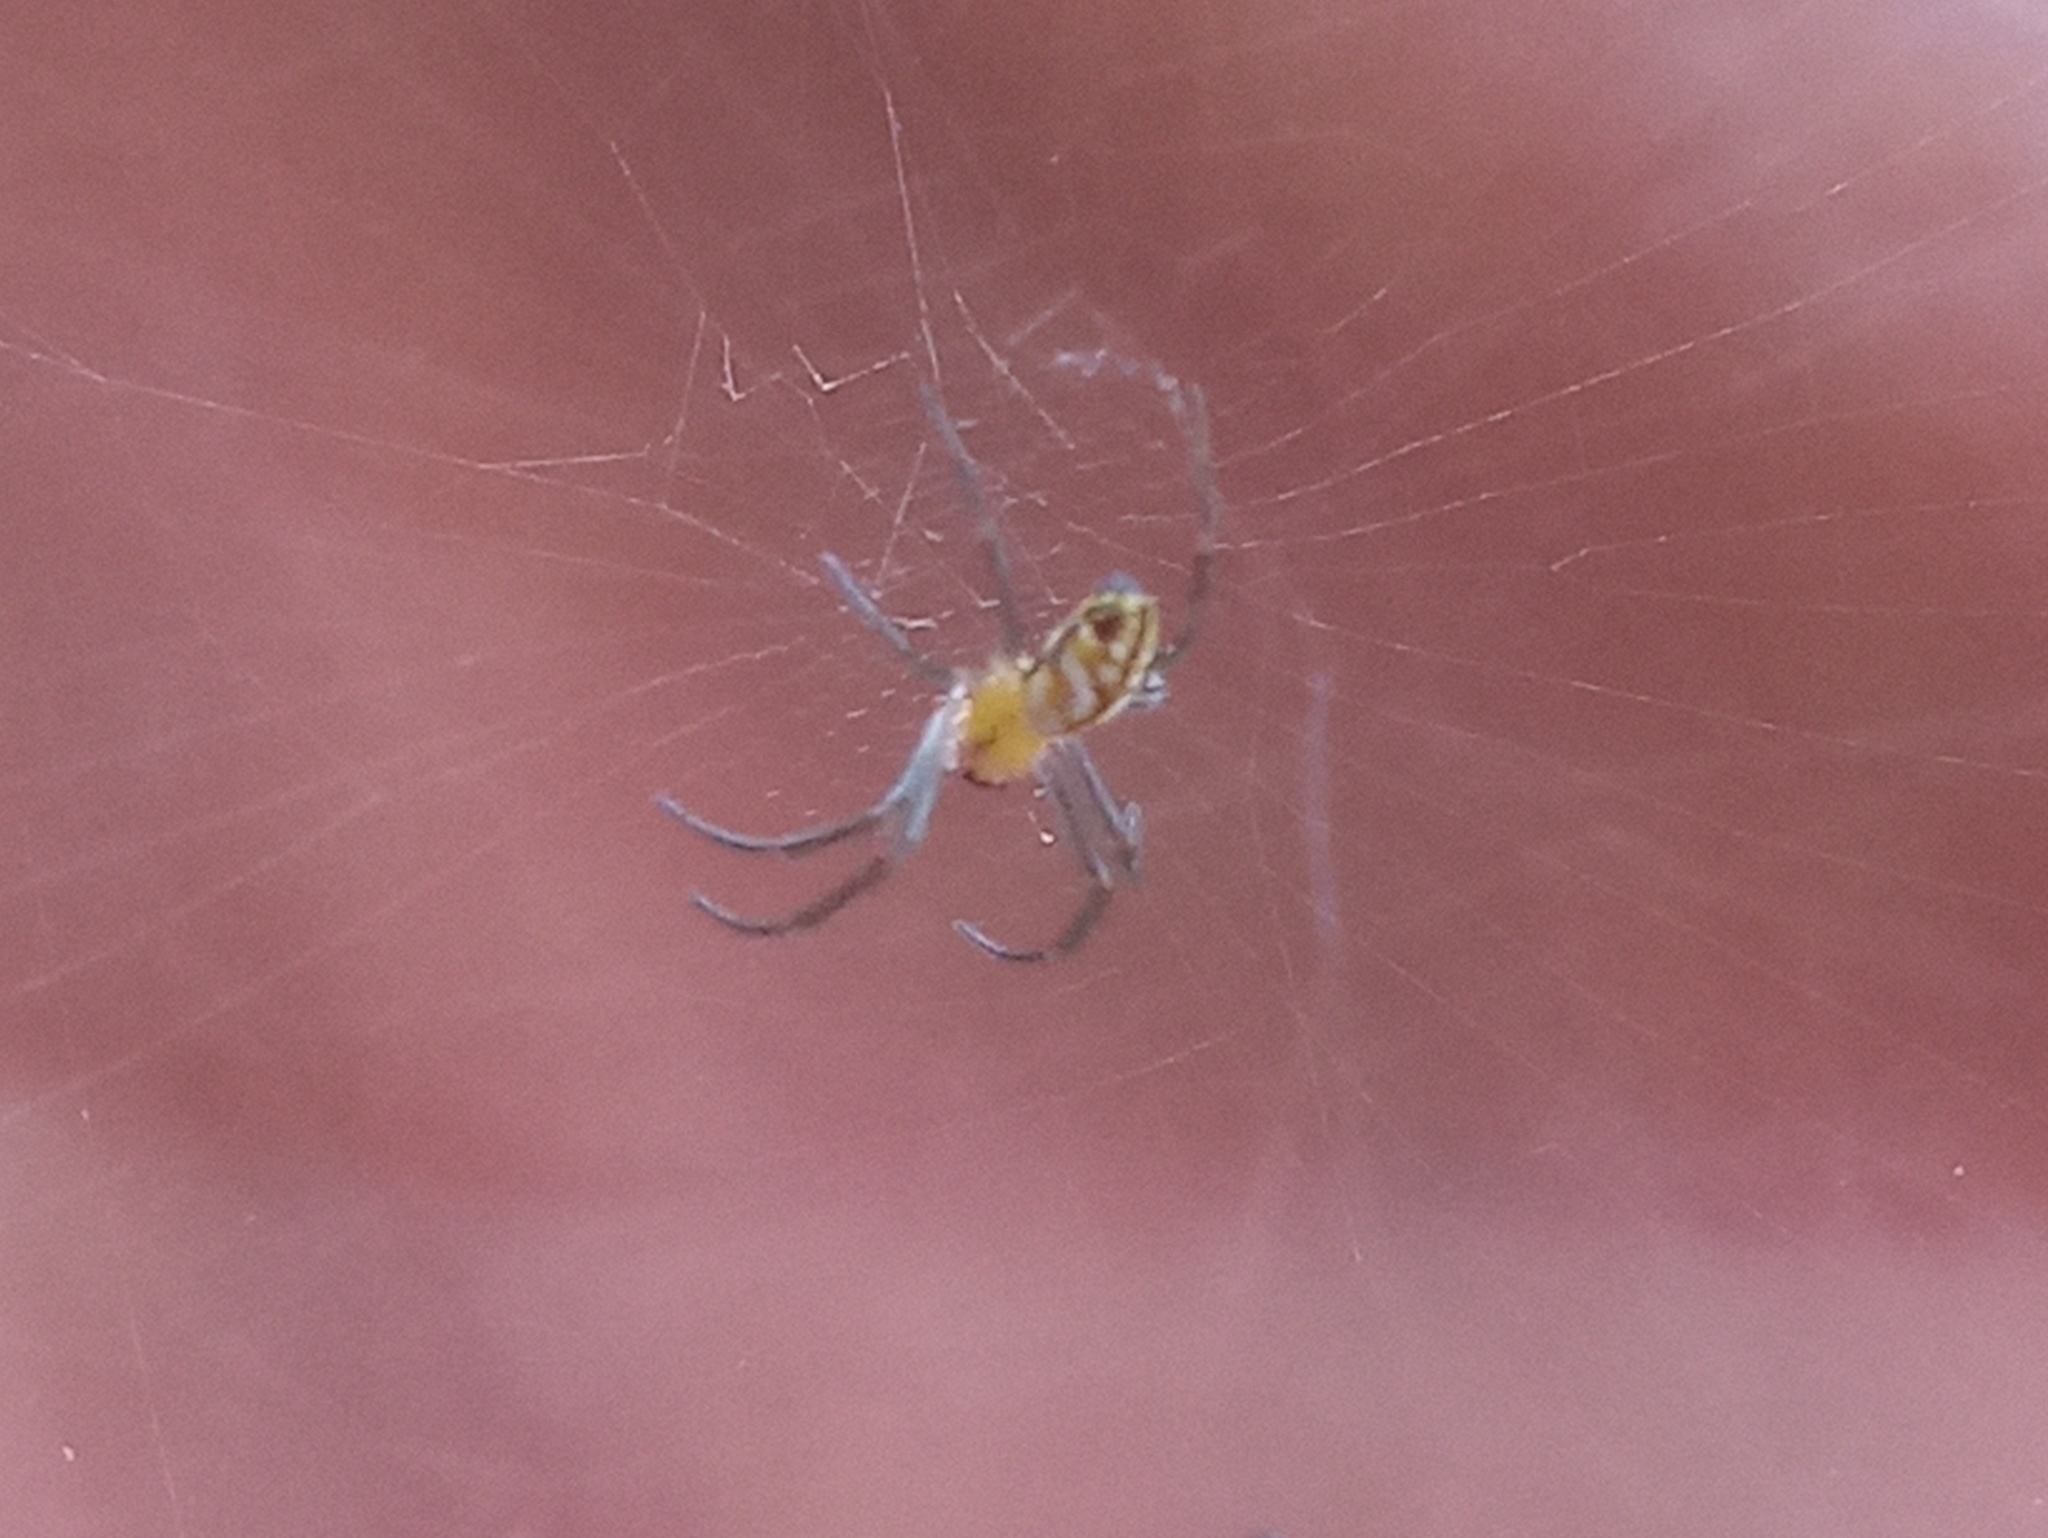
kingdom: Animalia
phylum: Arthropoda
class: Arachnida
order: Araneae
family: Araneidae
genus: Trichonephila
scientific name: Trichonephila clavipes
